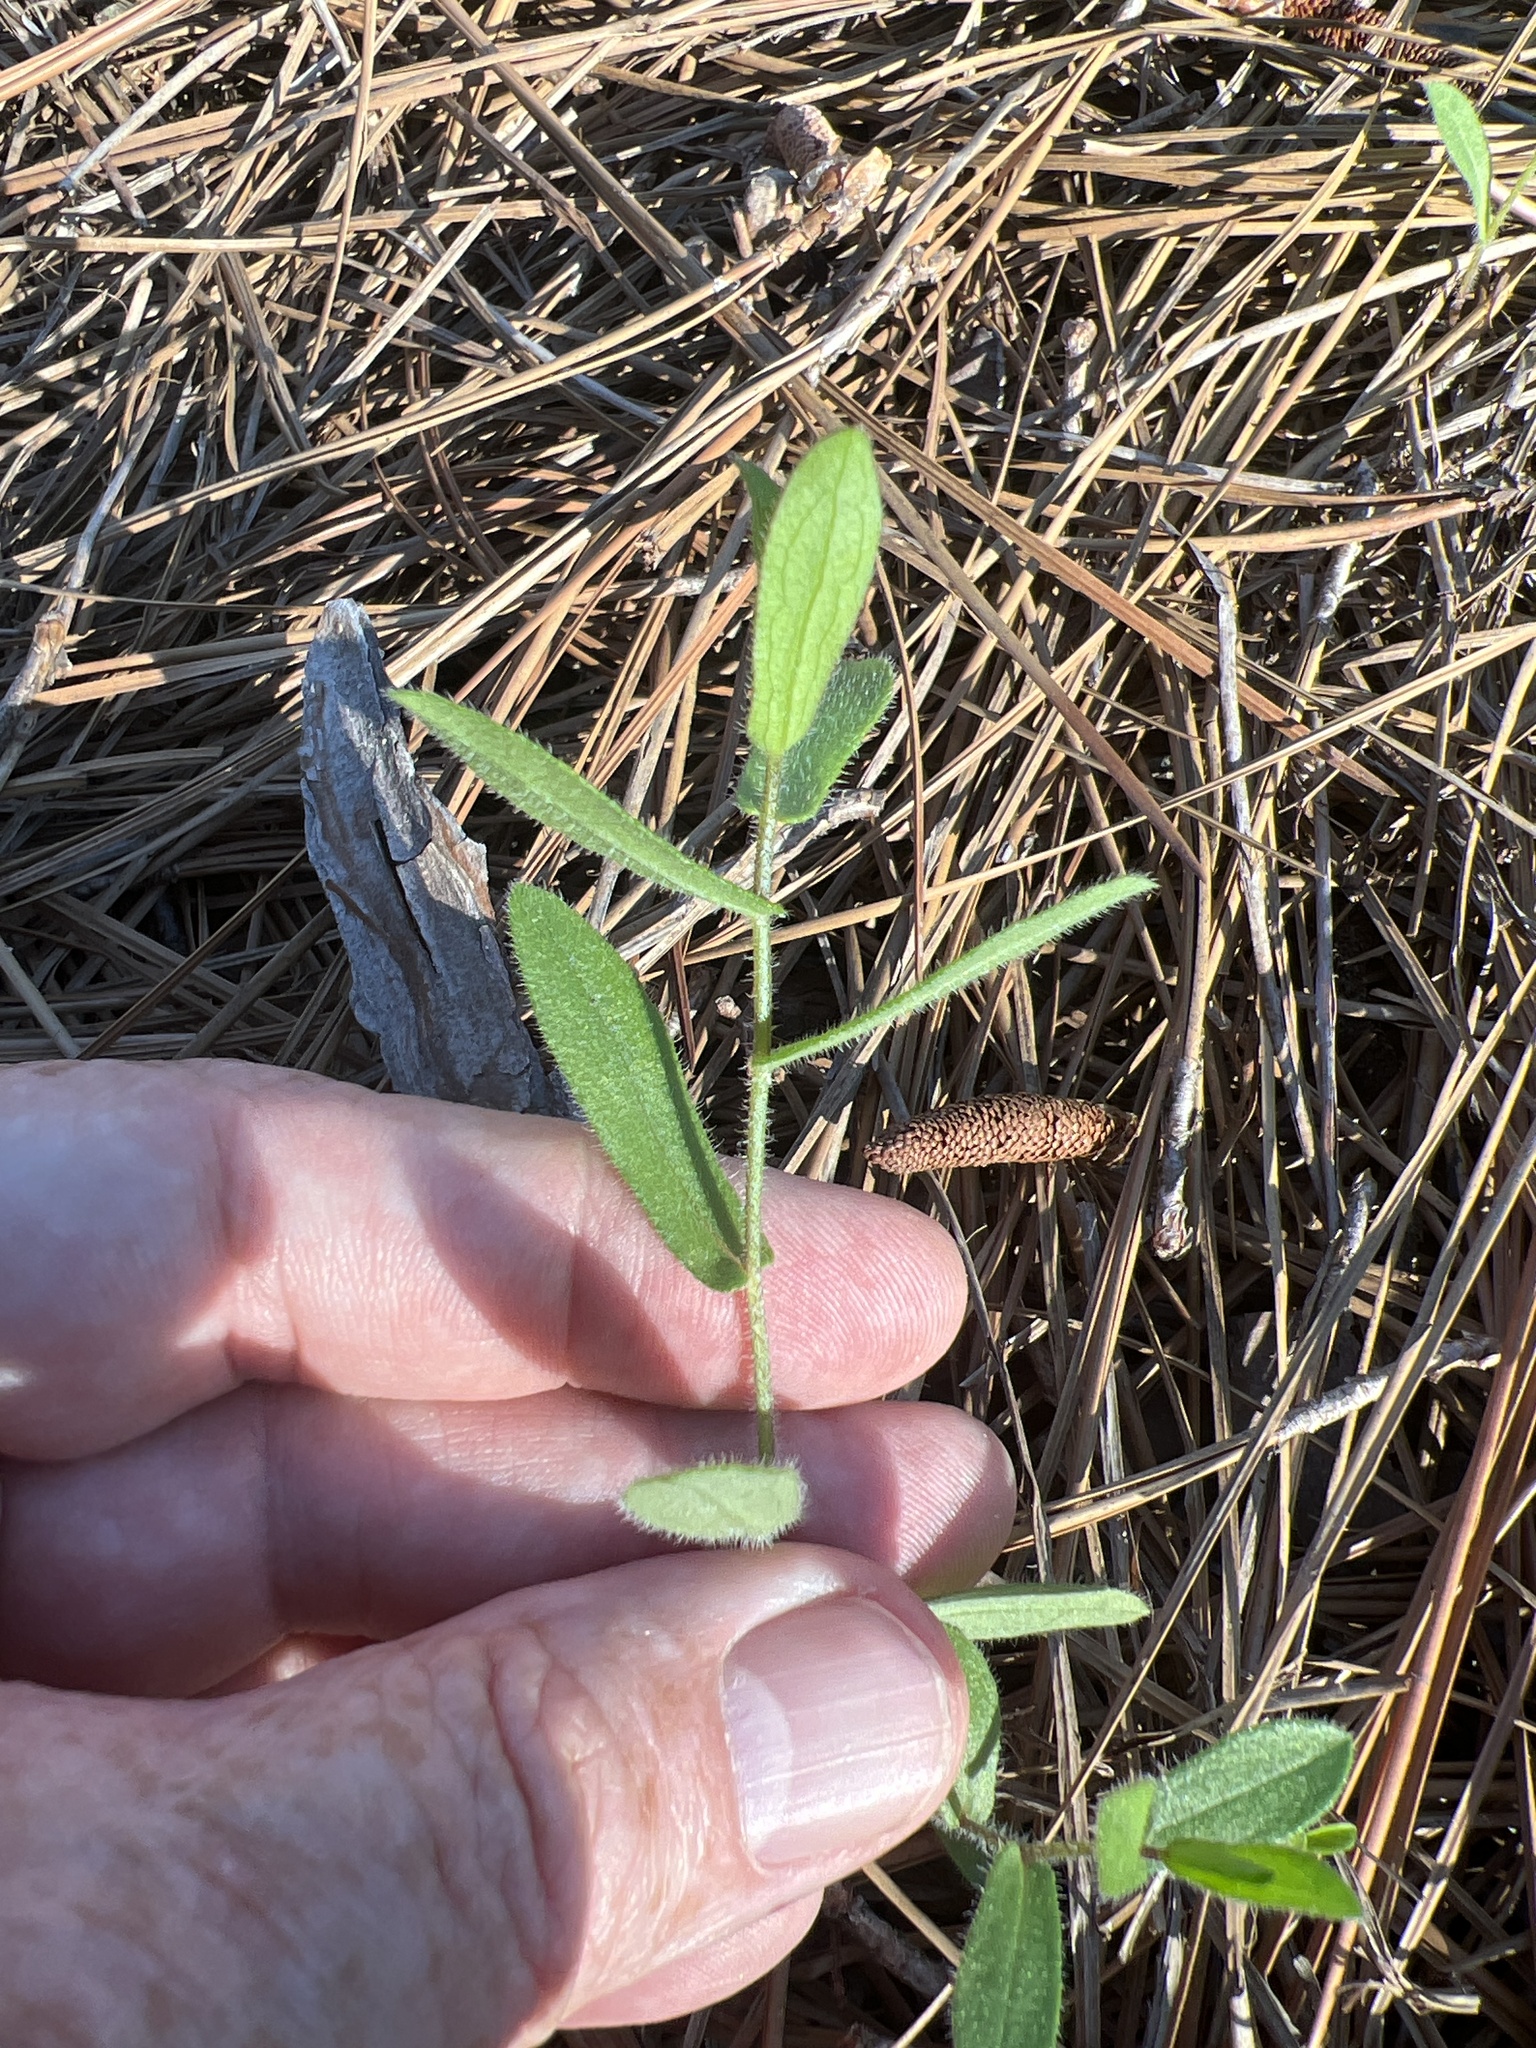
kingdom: Plantae
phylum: Tracheophyta
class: Magnoliopsida
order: Asterales
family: Asteraceae
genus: Symphyotrichum
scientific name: Symphyotrichum grandiflorum
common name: Big-head aster
